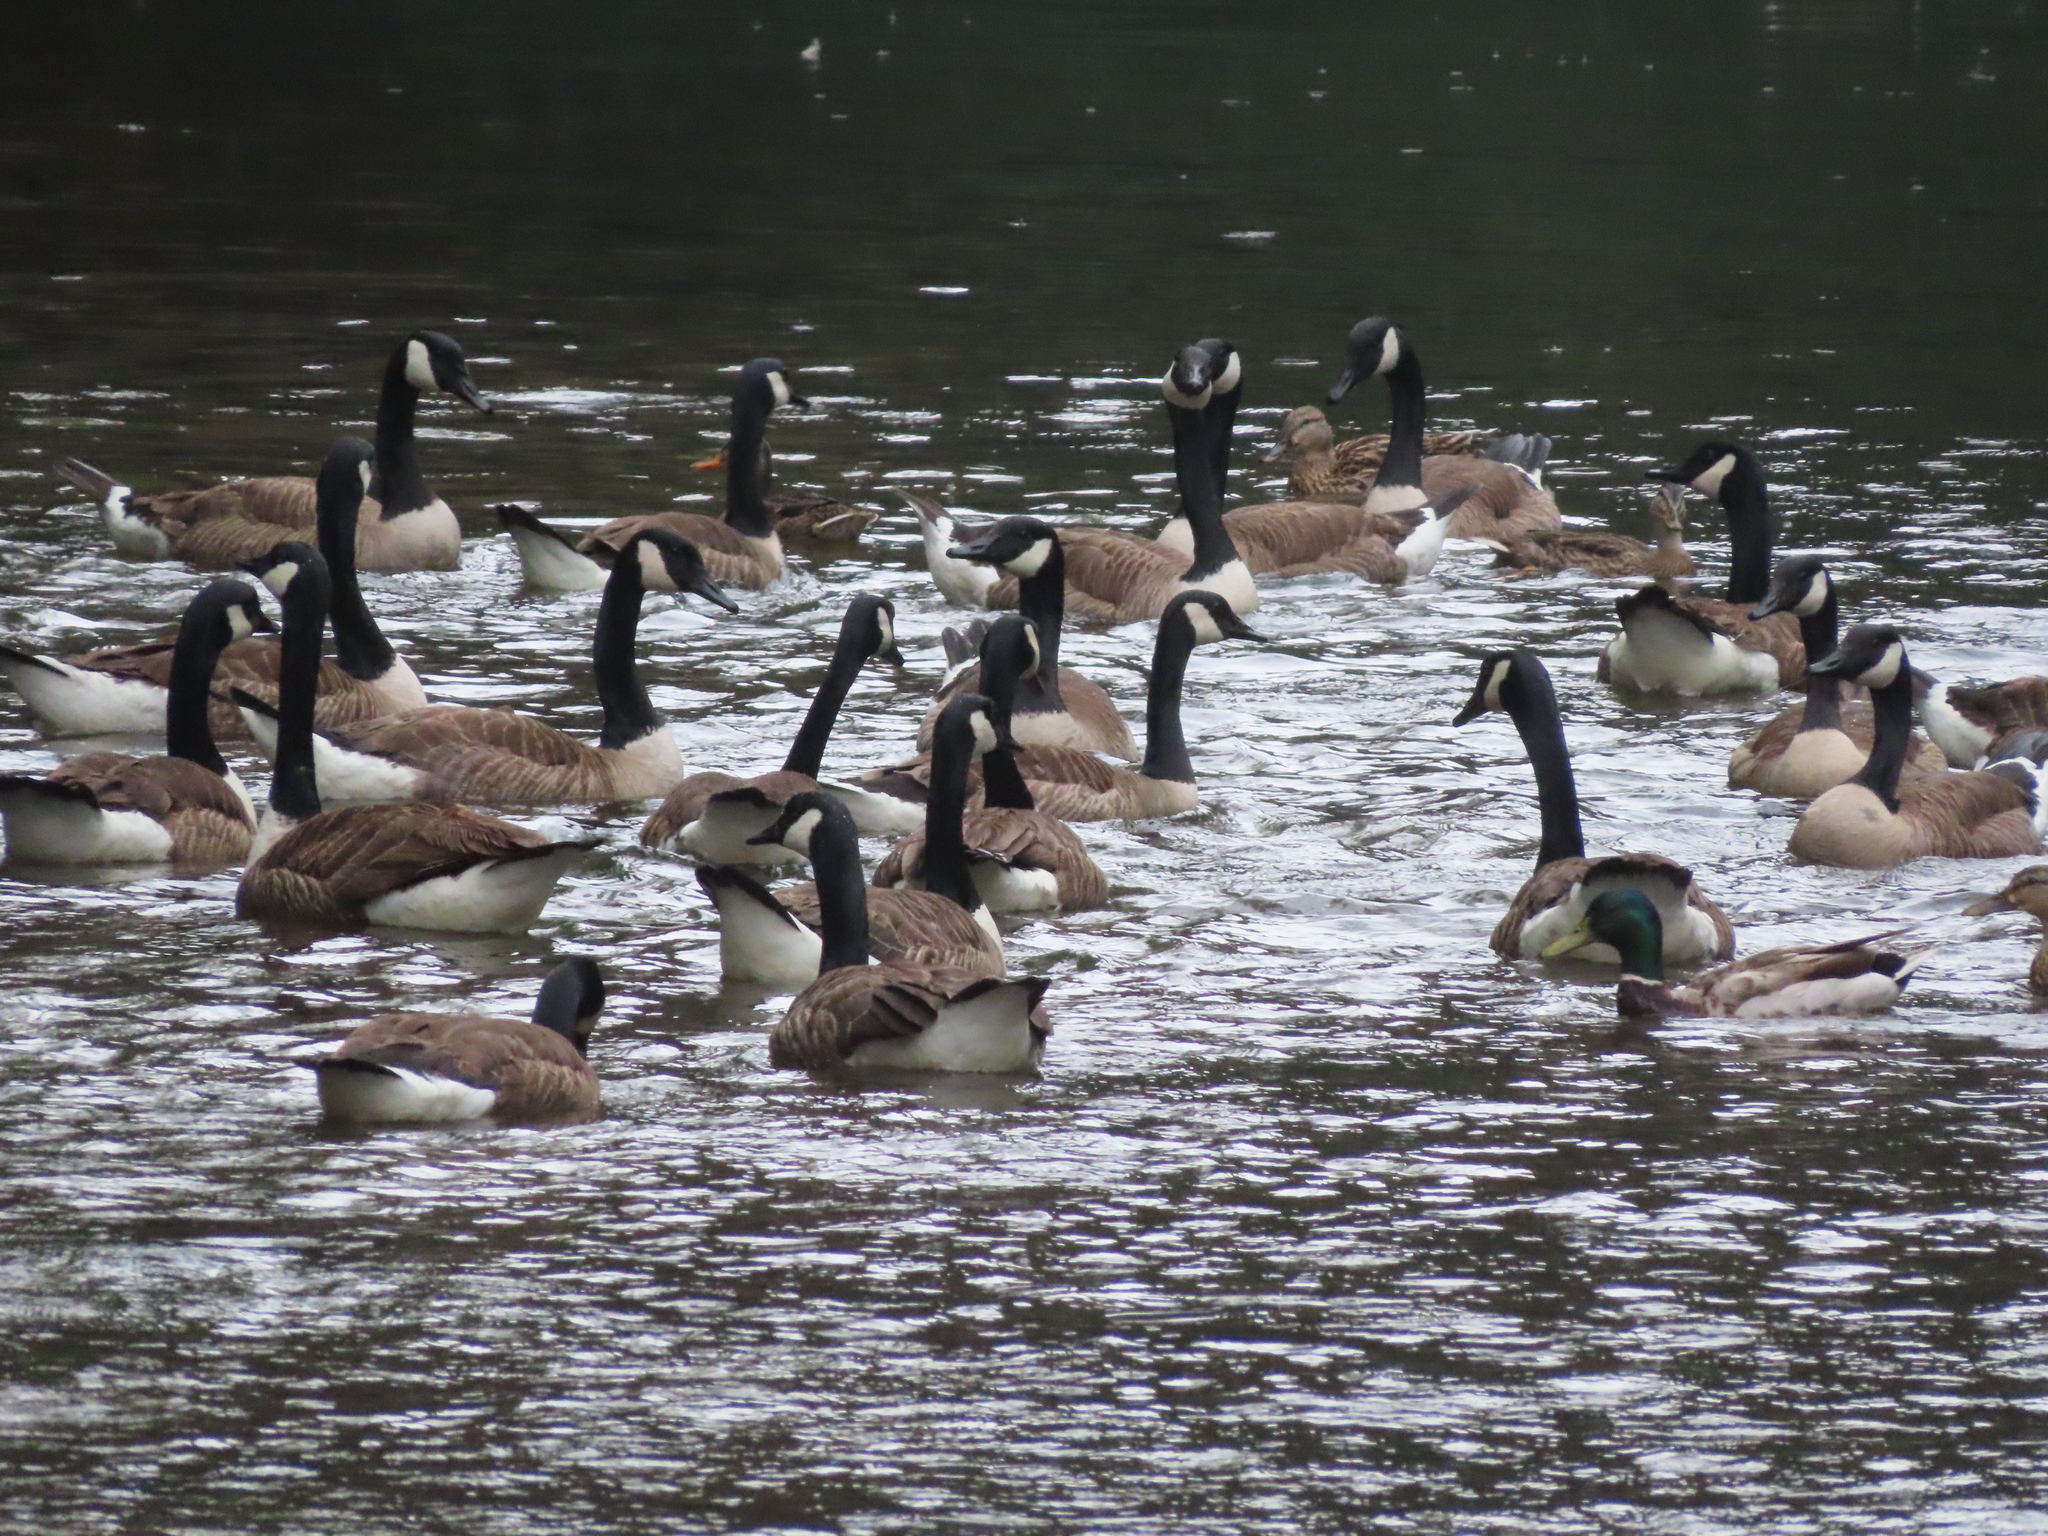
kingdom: Animalia
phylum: Chordata
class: Aves
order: Anseriformes
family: Anatidae
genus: Anas
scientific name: Anas platyrhynchos
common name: Mallard
